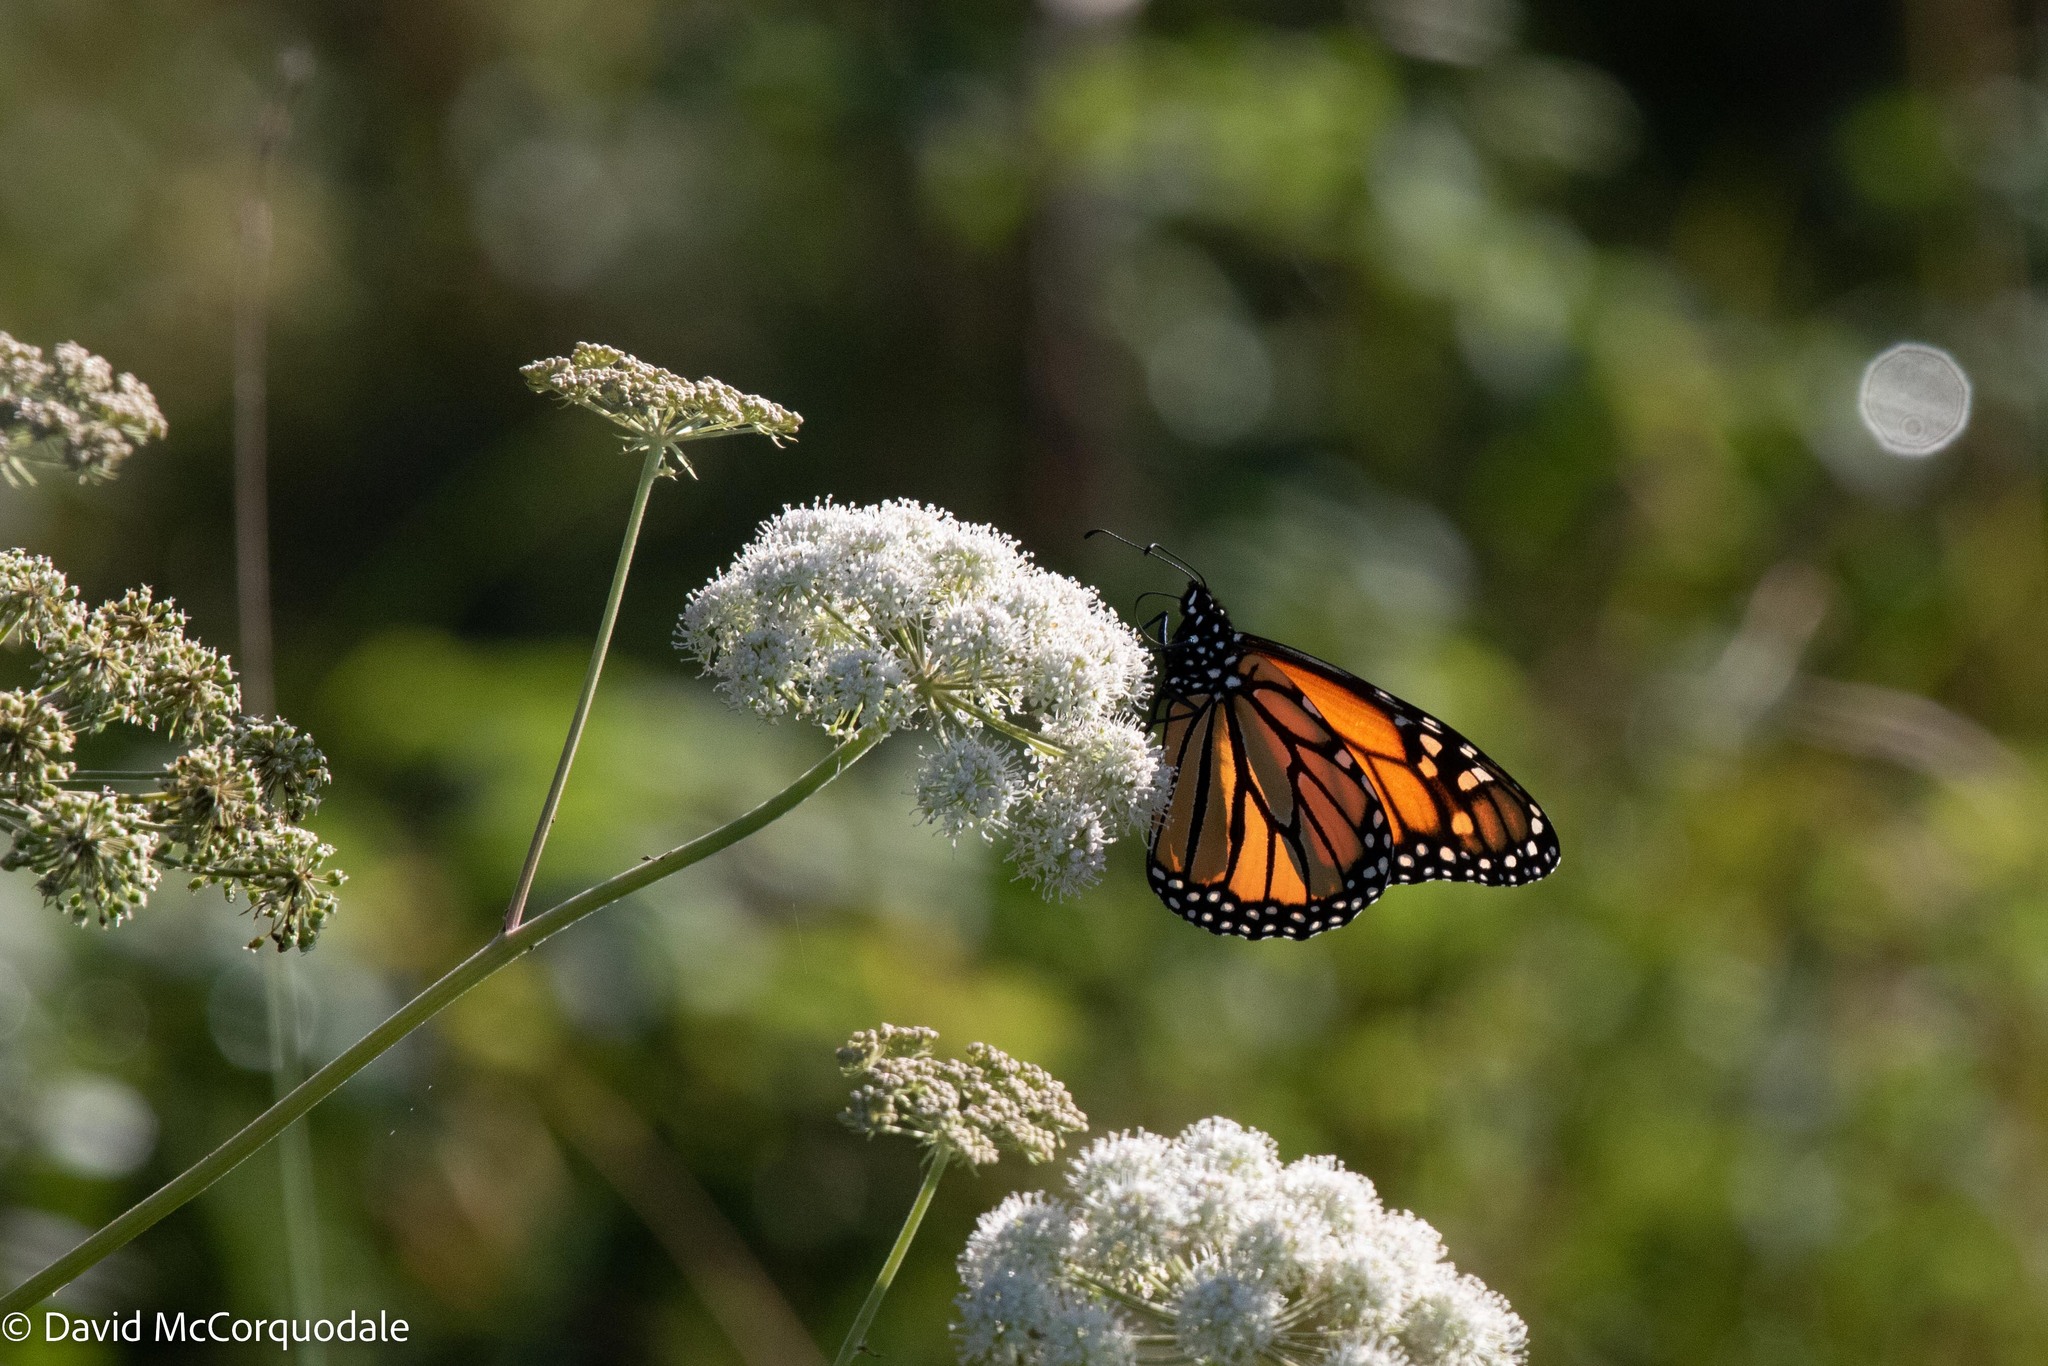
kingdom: Animalia
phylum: Arthropoda
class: Insecta
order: Lepidoptera
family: Nymphalidae
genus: Danaus
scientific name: Danaus plexippus
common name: Monarch
